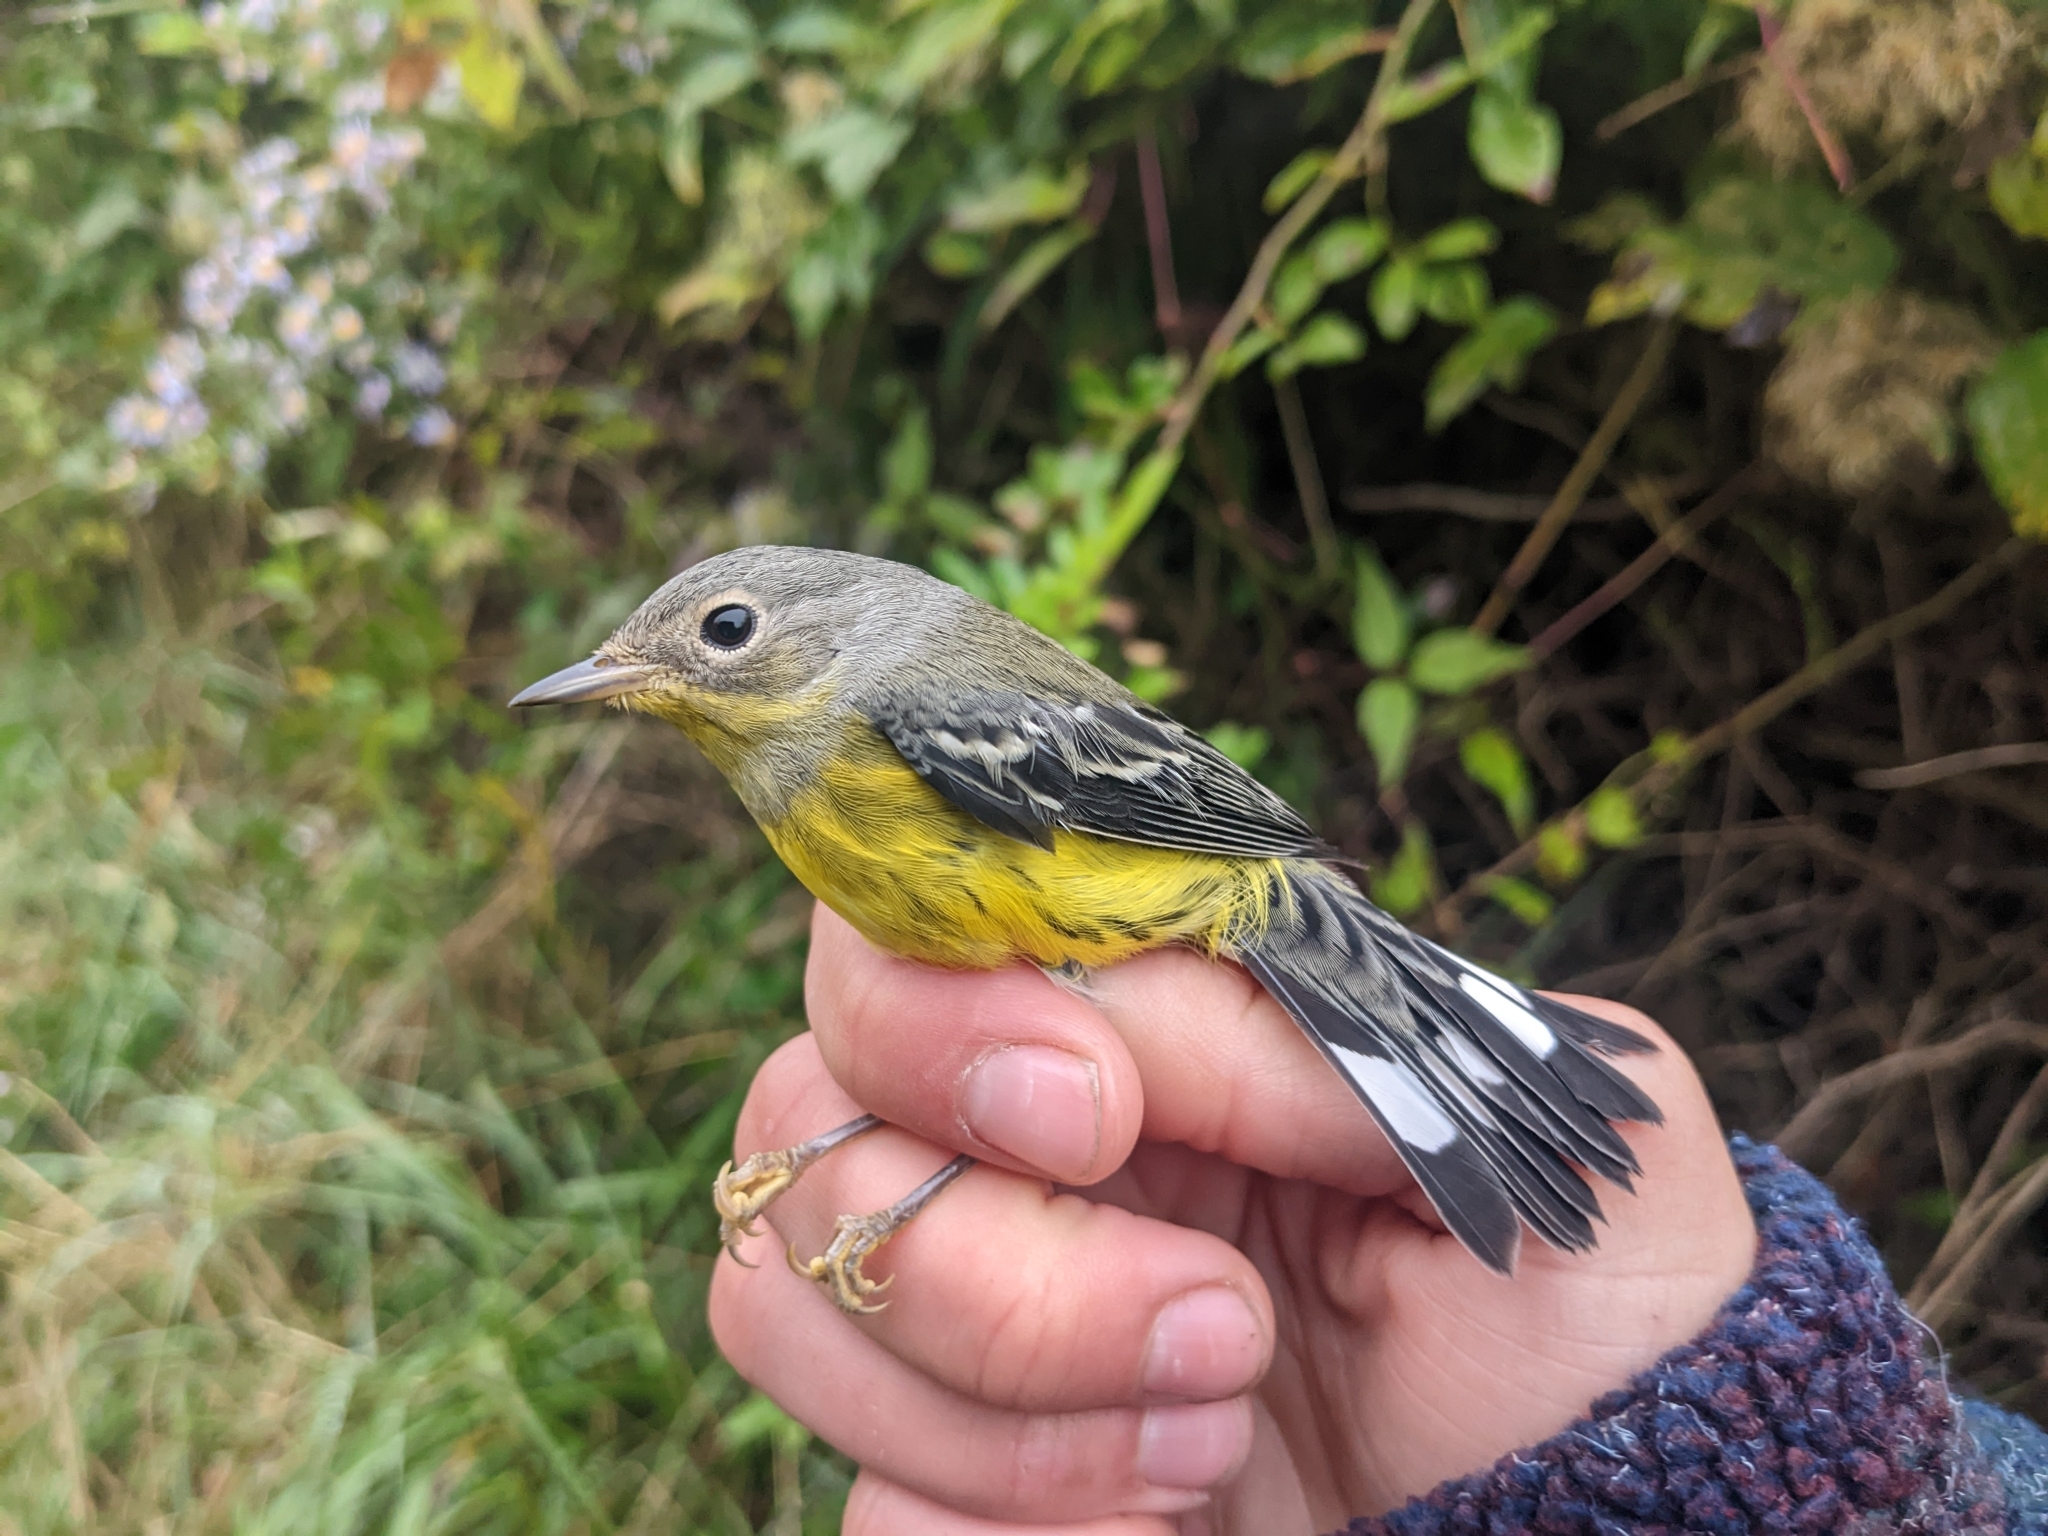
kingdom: Animalia
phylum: Chordata
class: Aves
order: Passeriformes
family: Parulidae
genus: Setophaga
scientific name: Setophaga magnolia
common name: Magnolia warbler
